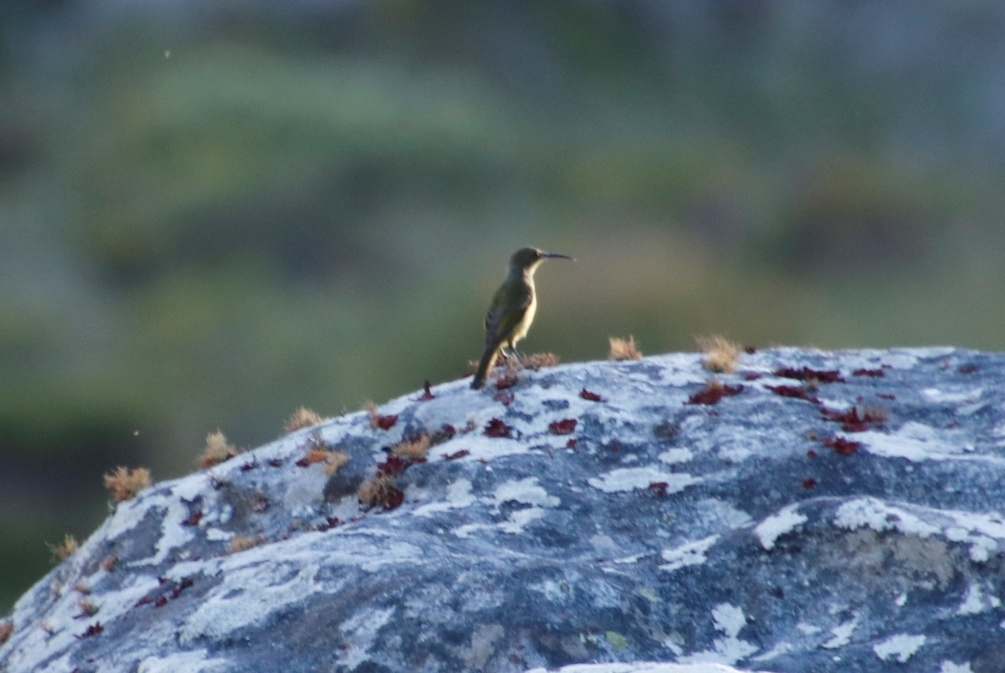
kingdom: Animalia
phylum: Chordata
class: Aves
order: Passeriformes
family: Nectariniidae
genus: Anthobaphes
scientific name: Anthobaphes violacea
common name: Orange-breasted sunbird
